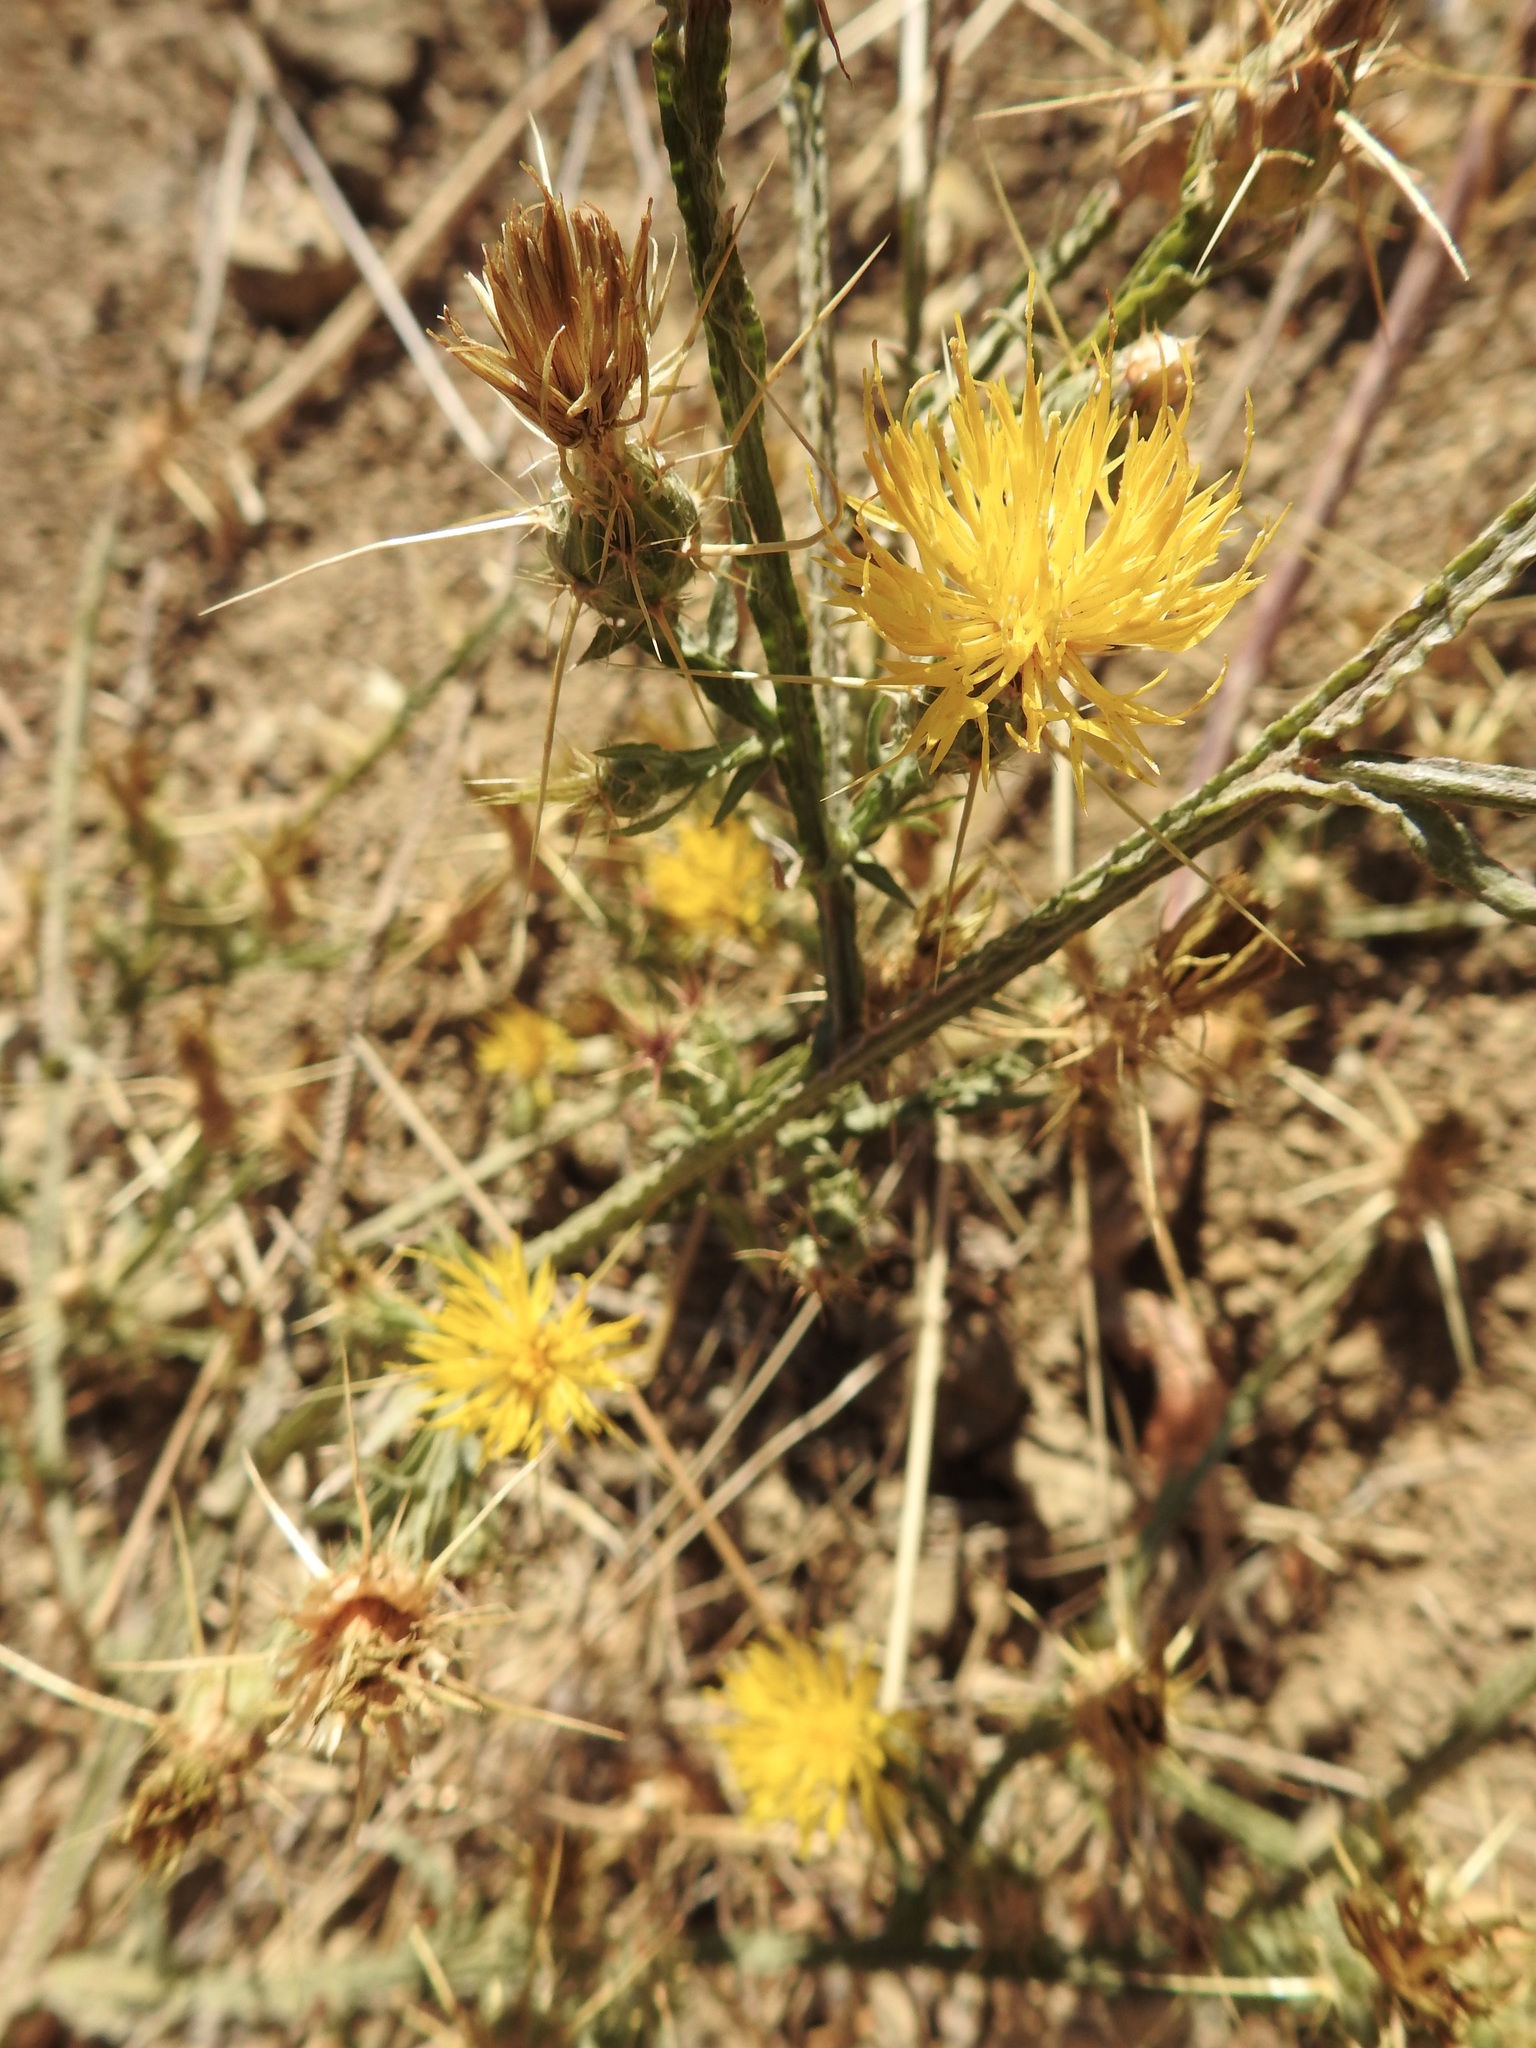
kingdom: Plantae
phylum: Tracheophyta
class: Magnoliopsida
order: Asterales
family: Asteraceae
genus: Centaurea
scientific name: Centaurea solstitialis
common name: Yellow star-thistle
